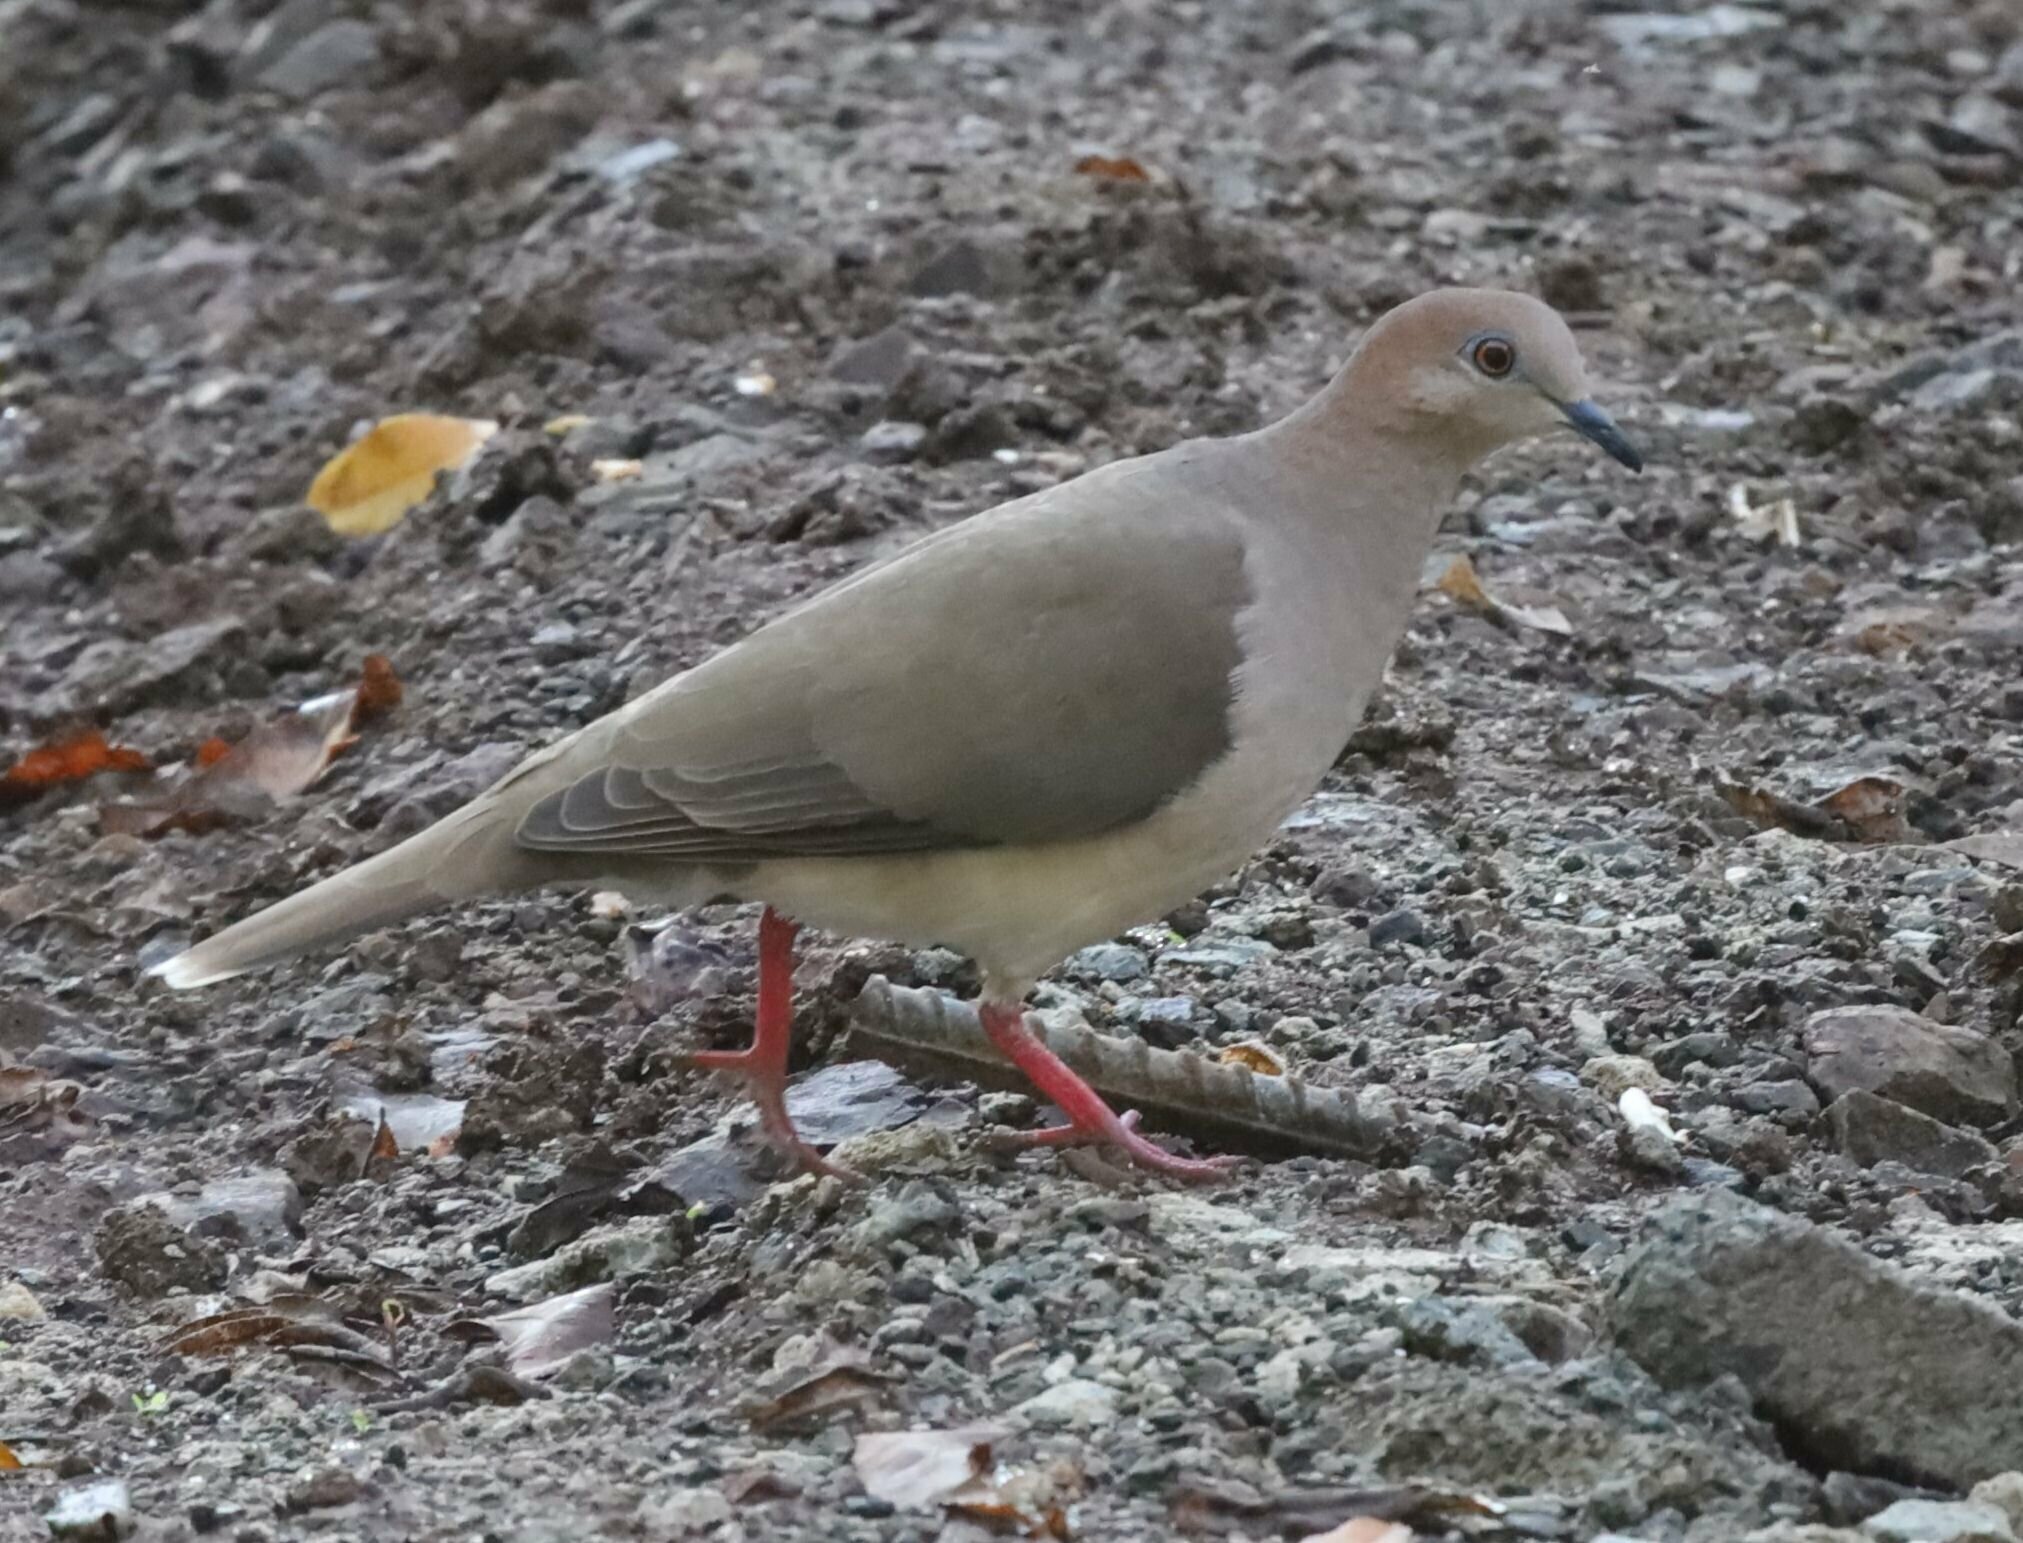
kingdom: Animalia
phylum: Chordata
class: Aves
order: Columbiformes
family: Columbidae
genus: Leptotila
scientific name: Leptotila verreauxi
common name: White-tipped dove
